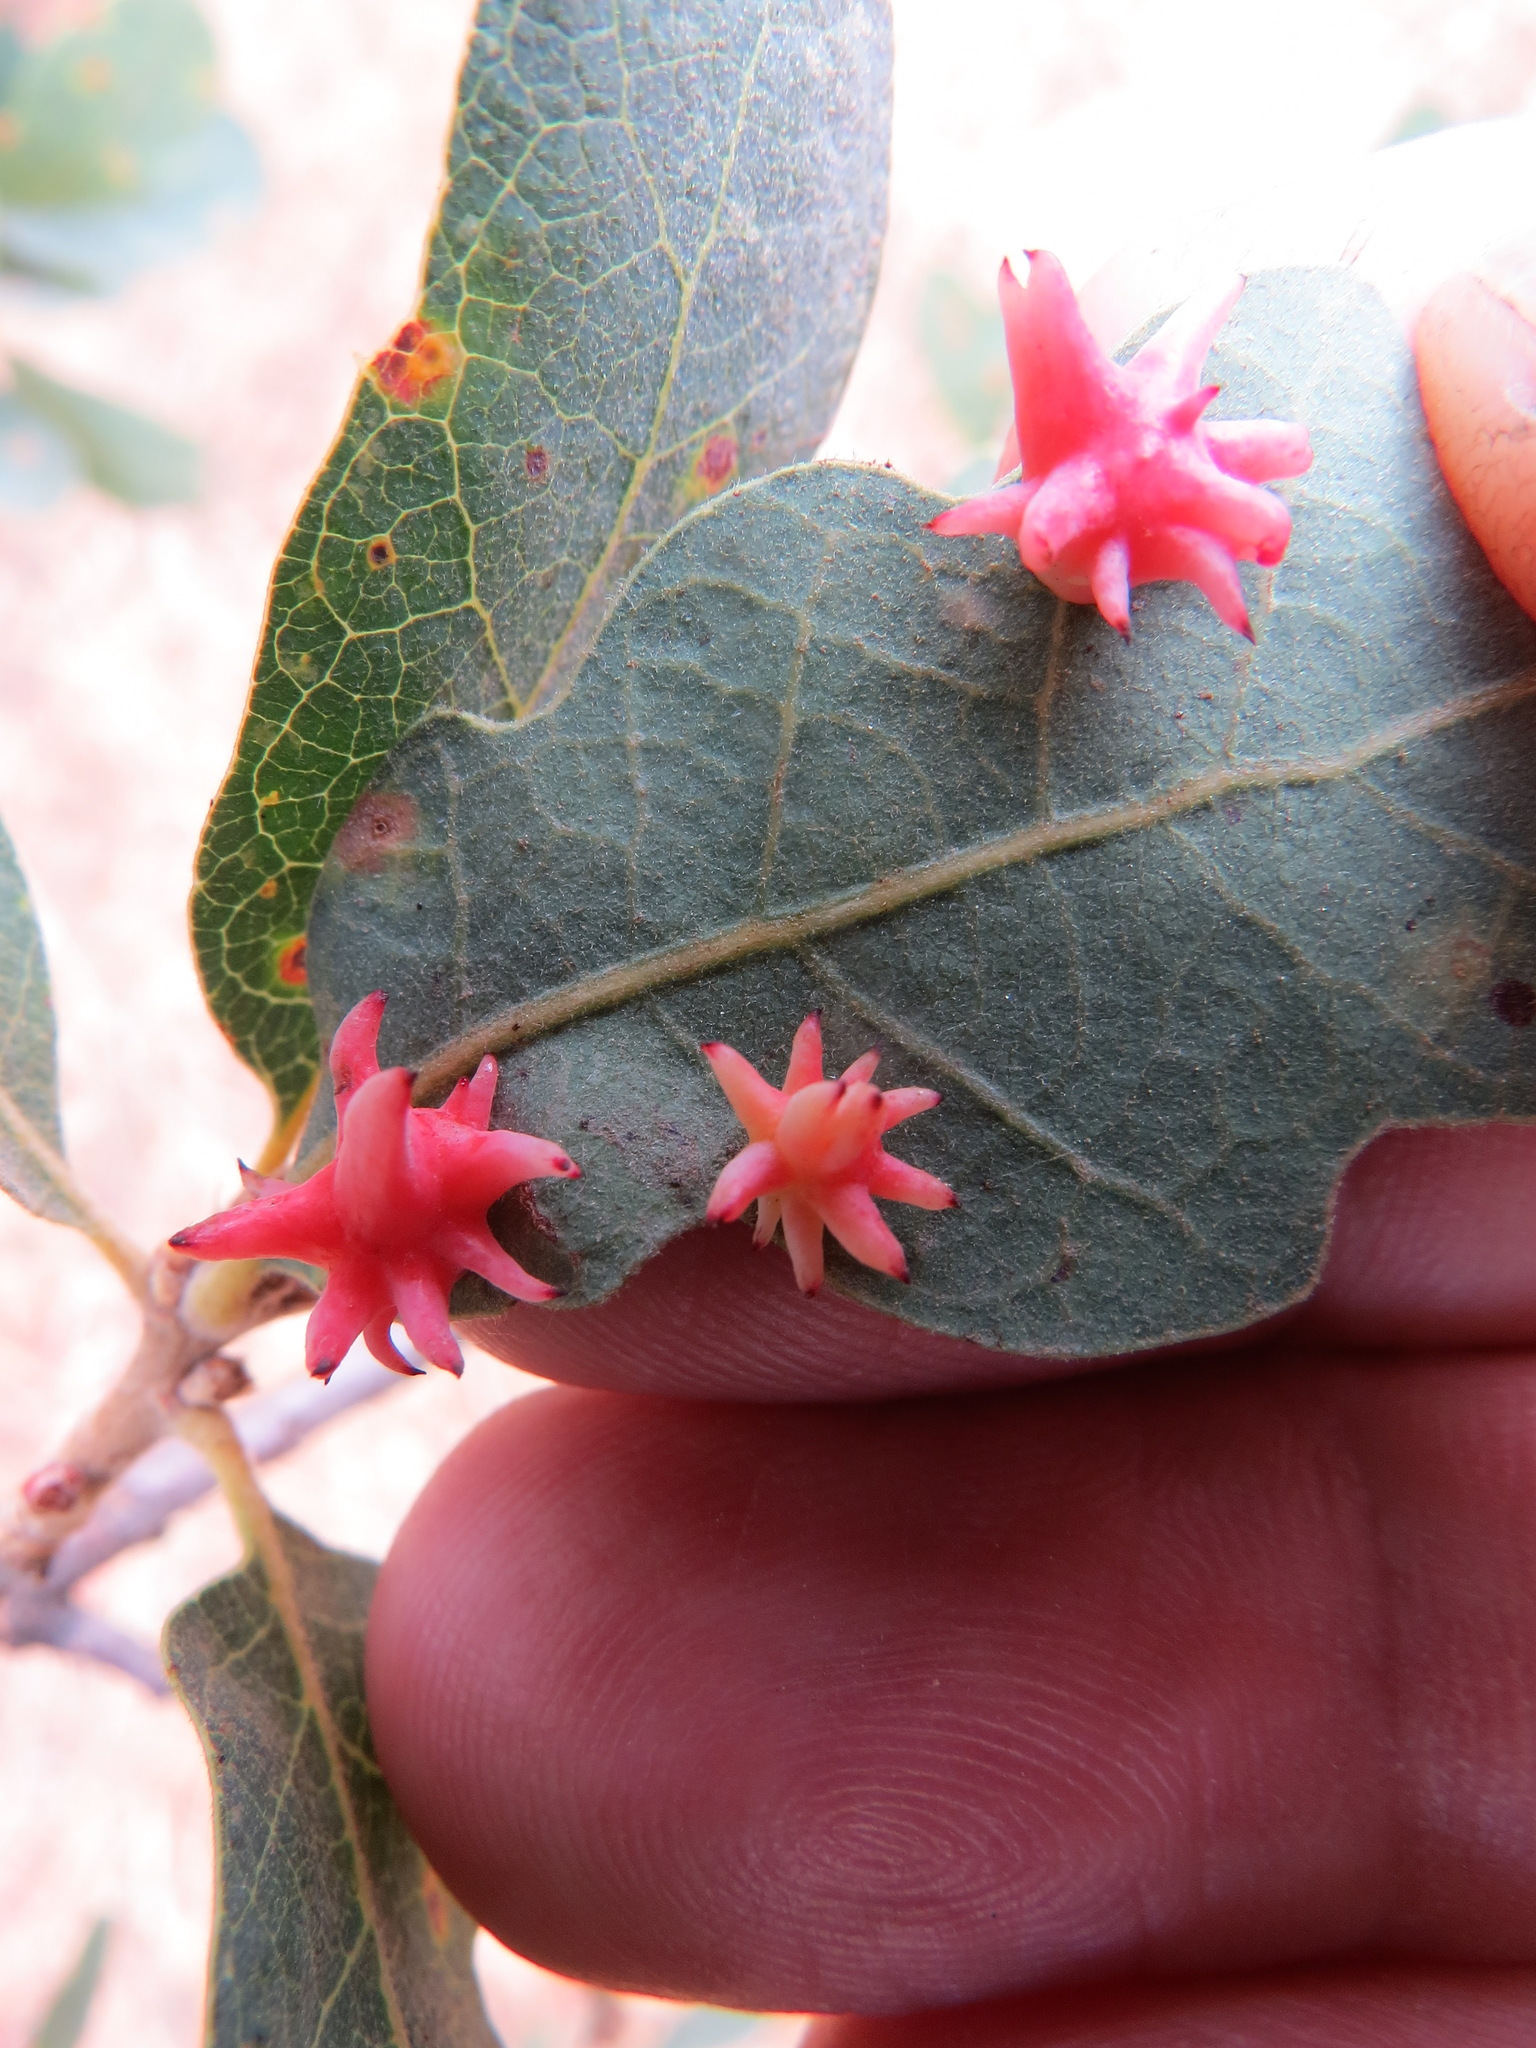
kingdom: Animalia
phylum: Arthropoda
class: Insecta
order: Hymenoptera
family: Cynipidae
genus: Cynips
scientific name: Cynips
